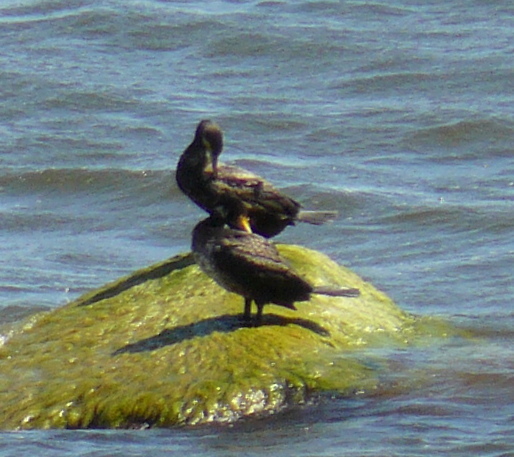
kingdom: Animalia
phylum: Chordata
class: Aves
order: Suliformes
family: Phalacrocoracidae
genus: Phalacrocorax
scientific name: Phalacrocorax carbo
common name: Great cormorant
